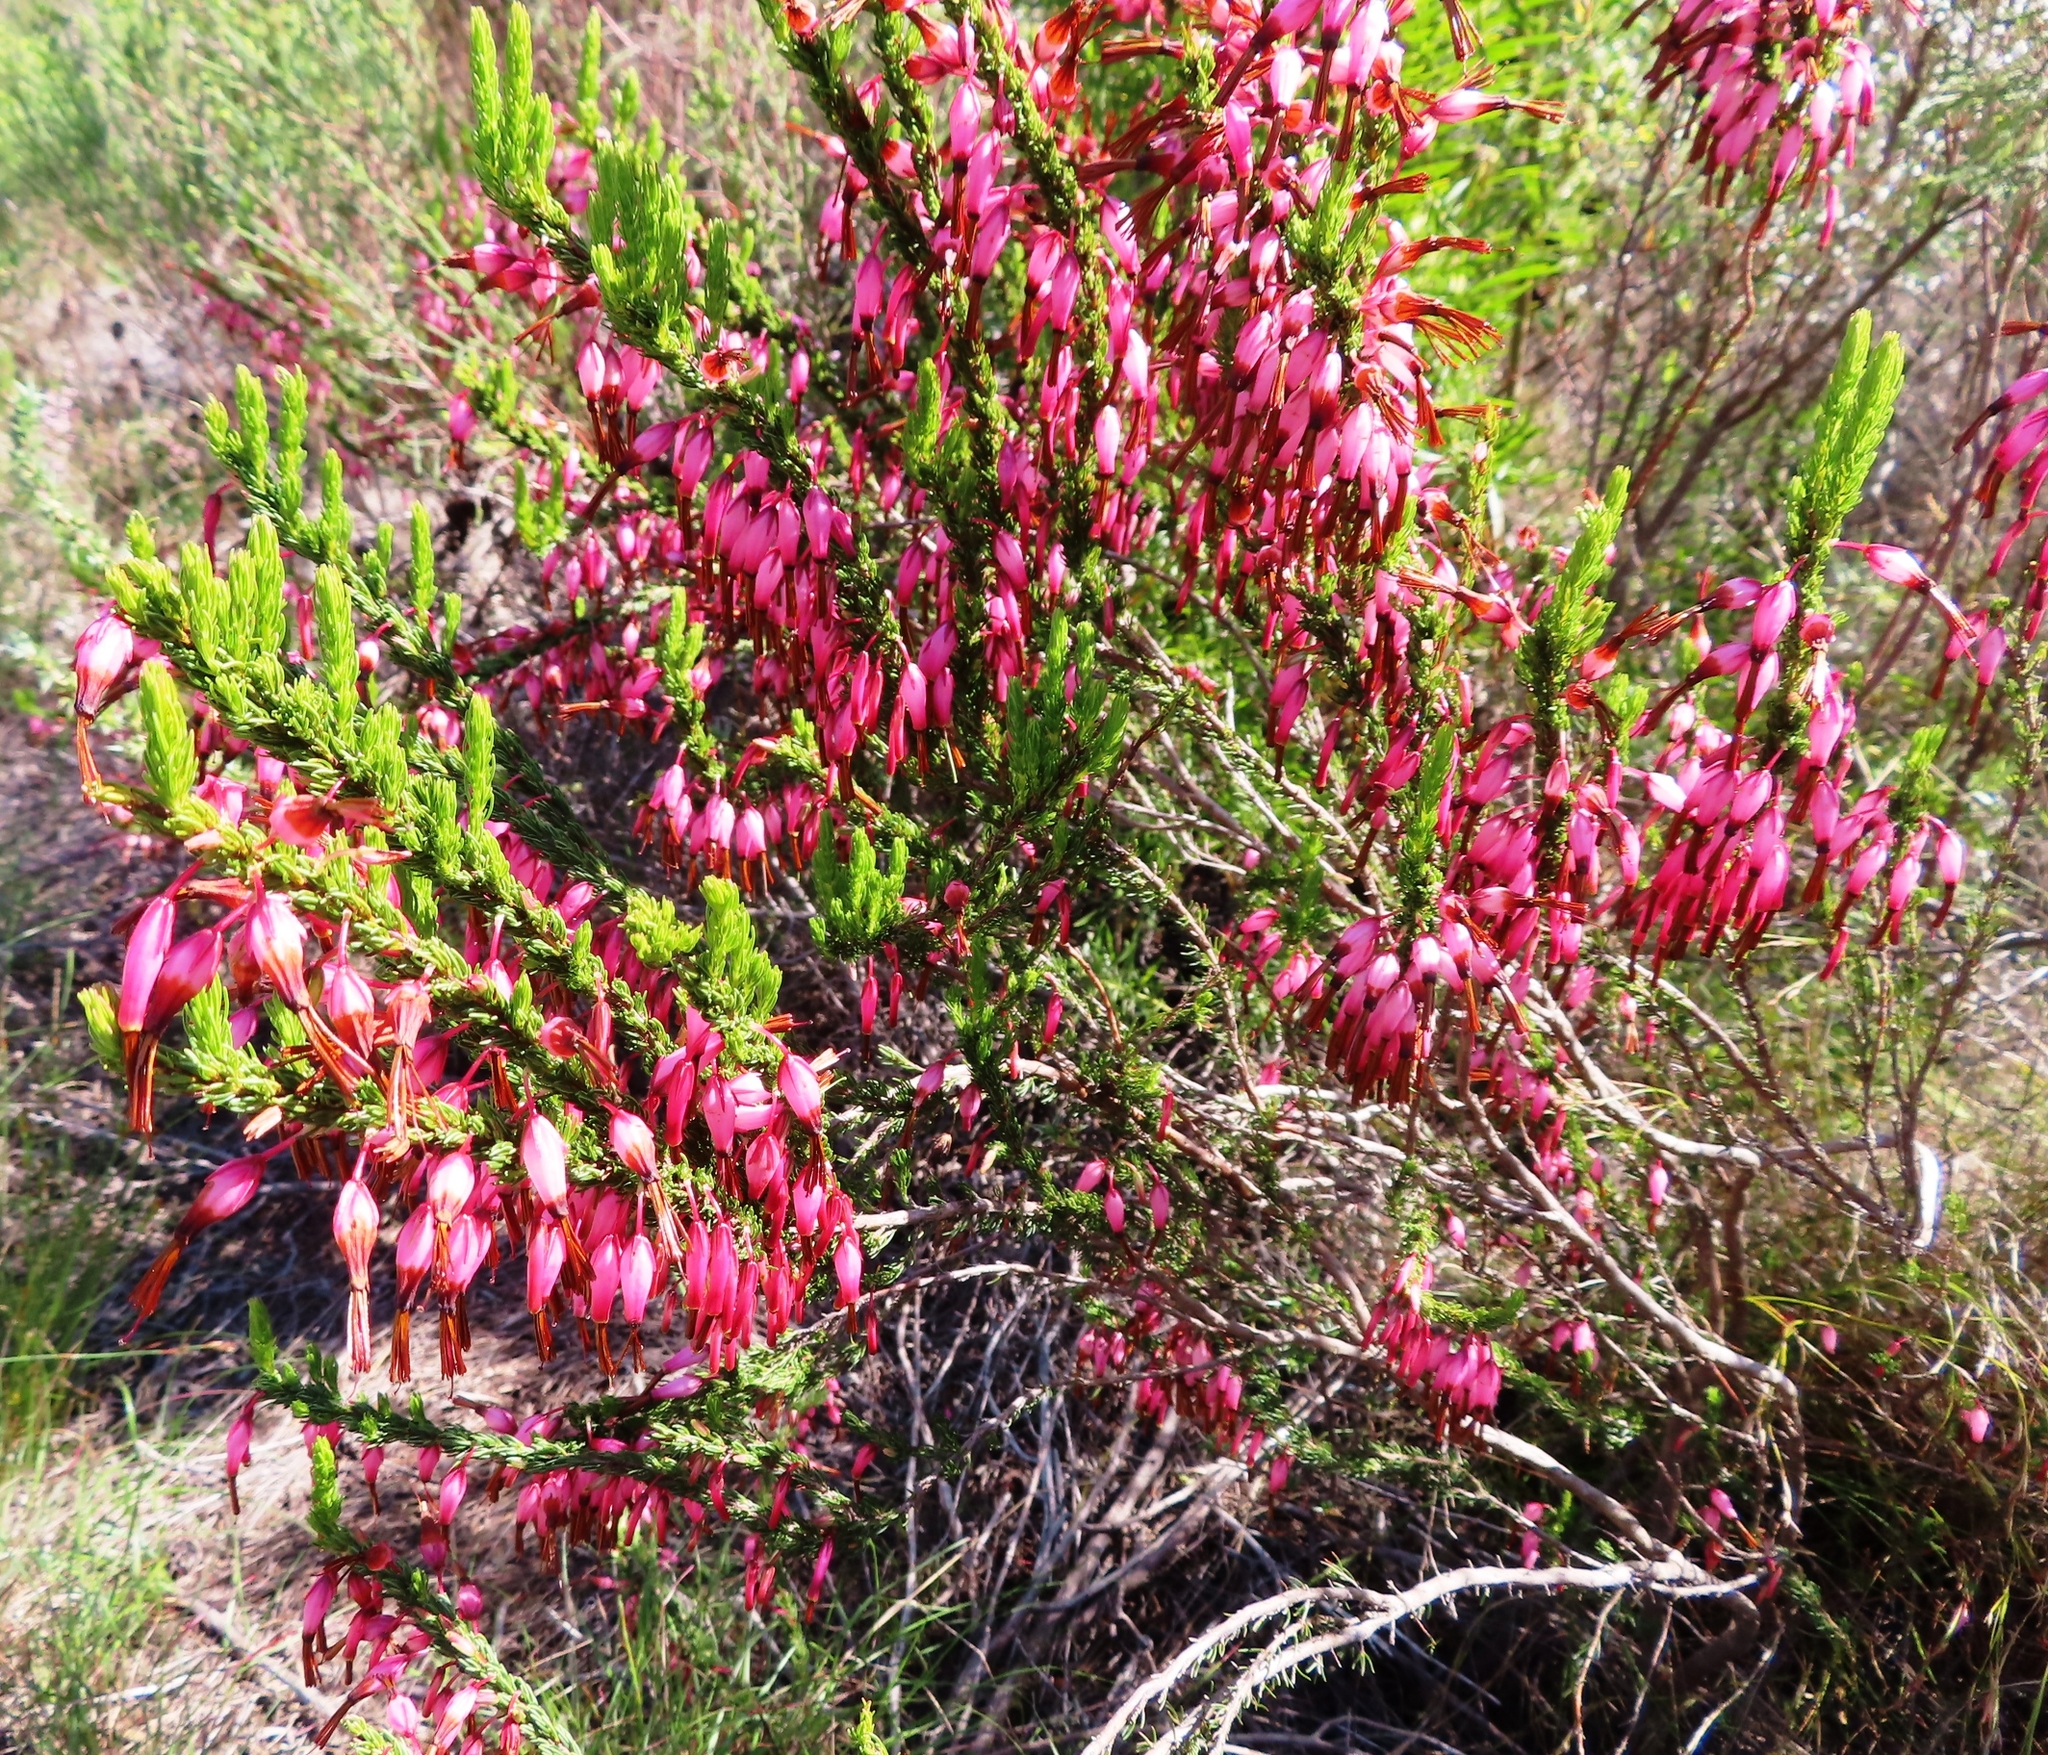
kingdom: Plantae
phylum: Tracheophyta
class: Magnoliopsida
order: Ericales
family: Ericaceae
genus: Erica
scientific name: Erica plukenetii
